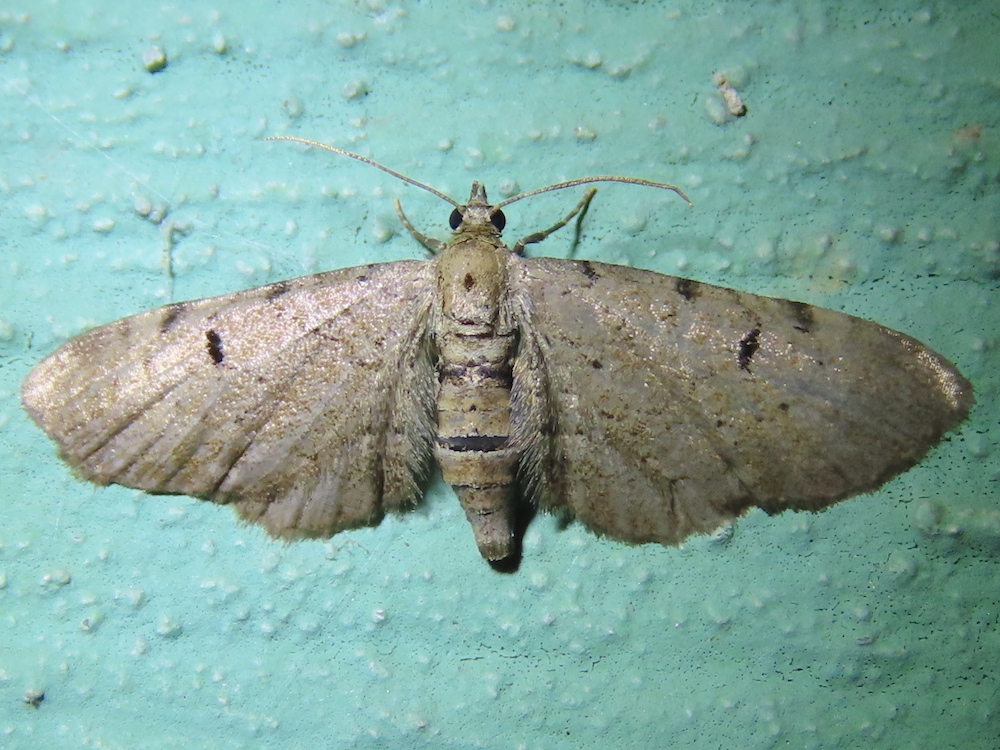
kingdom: Animalia
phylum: Arthropoda
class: Insecta
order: Lepidoptera
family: Geometridae
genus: Eupithecia
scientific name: Eupithecia absinthiata
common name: Wormwood pug
